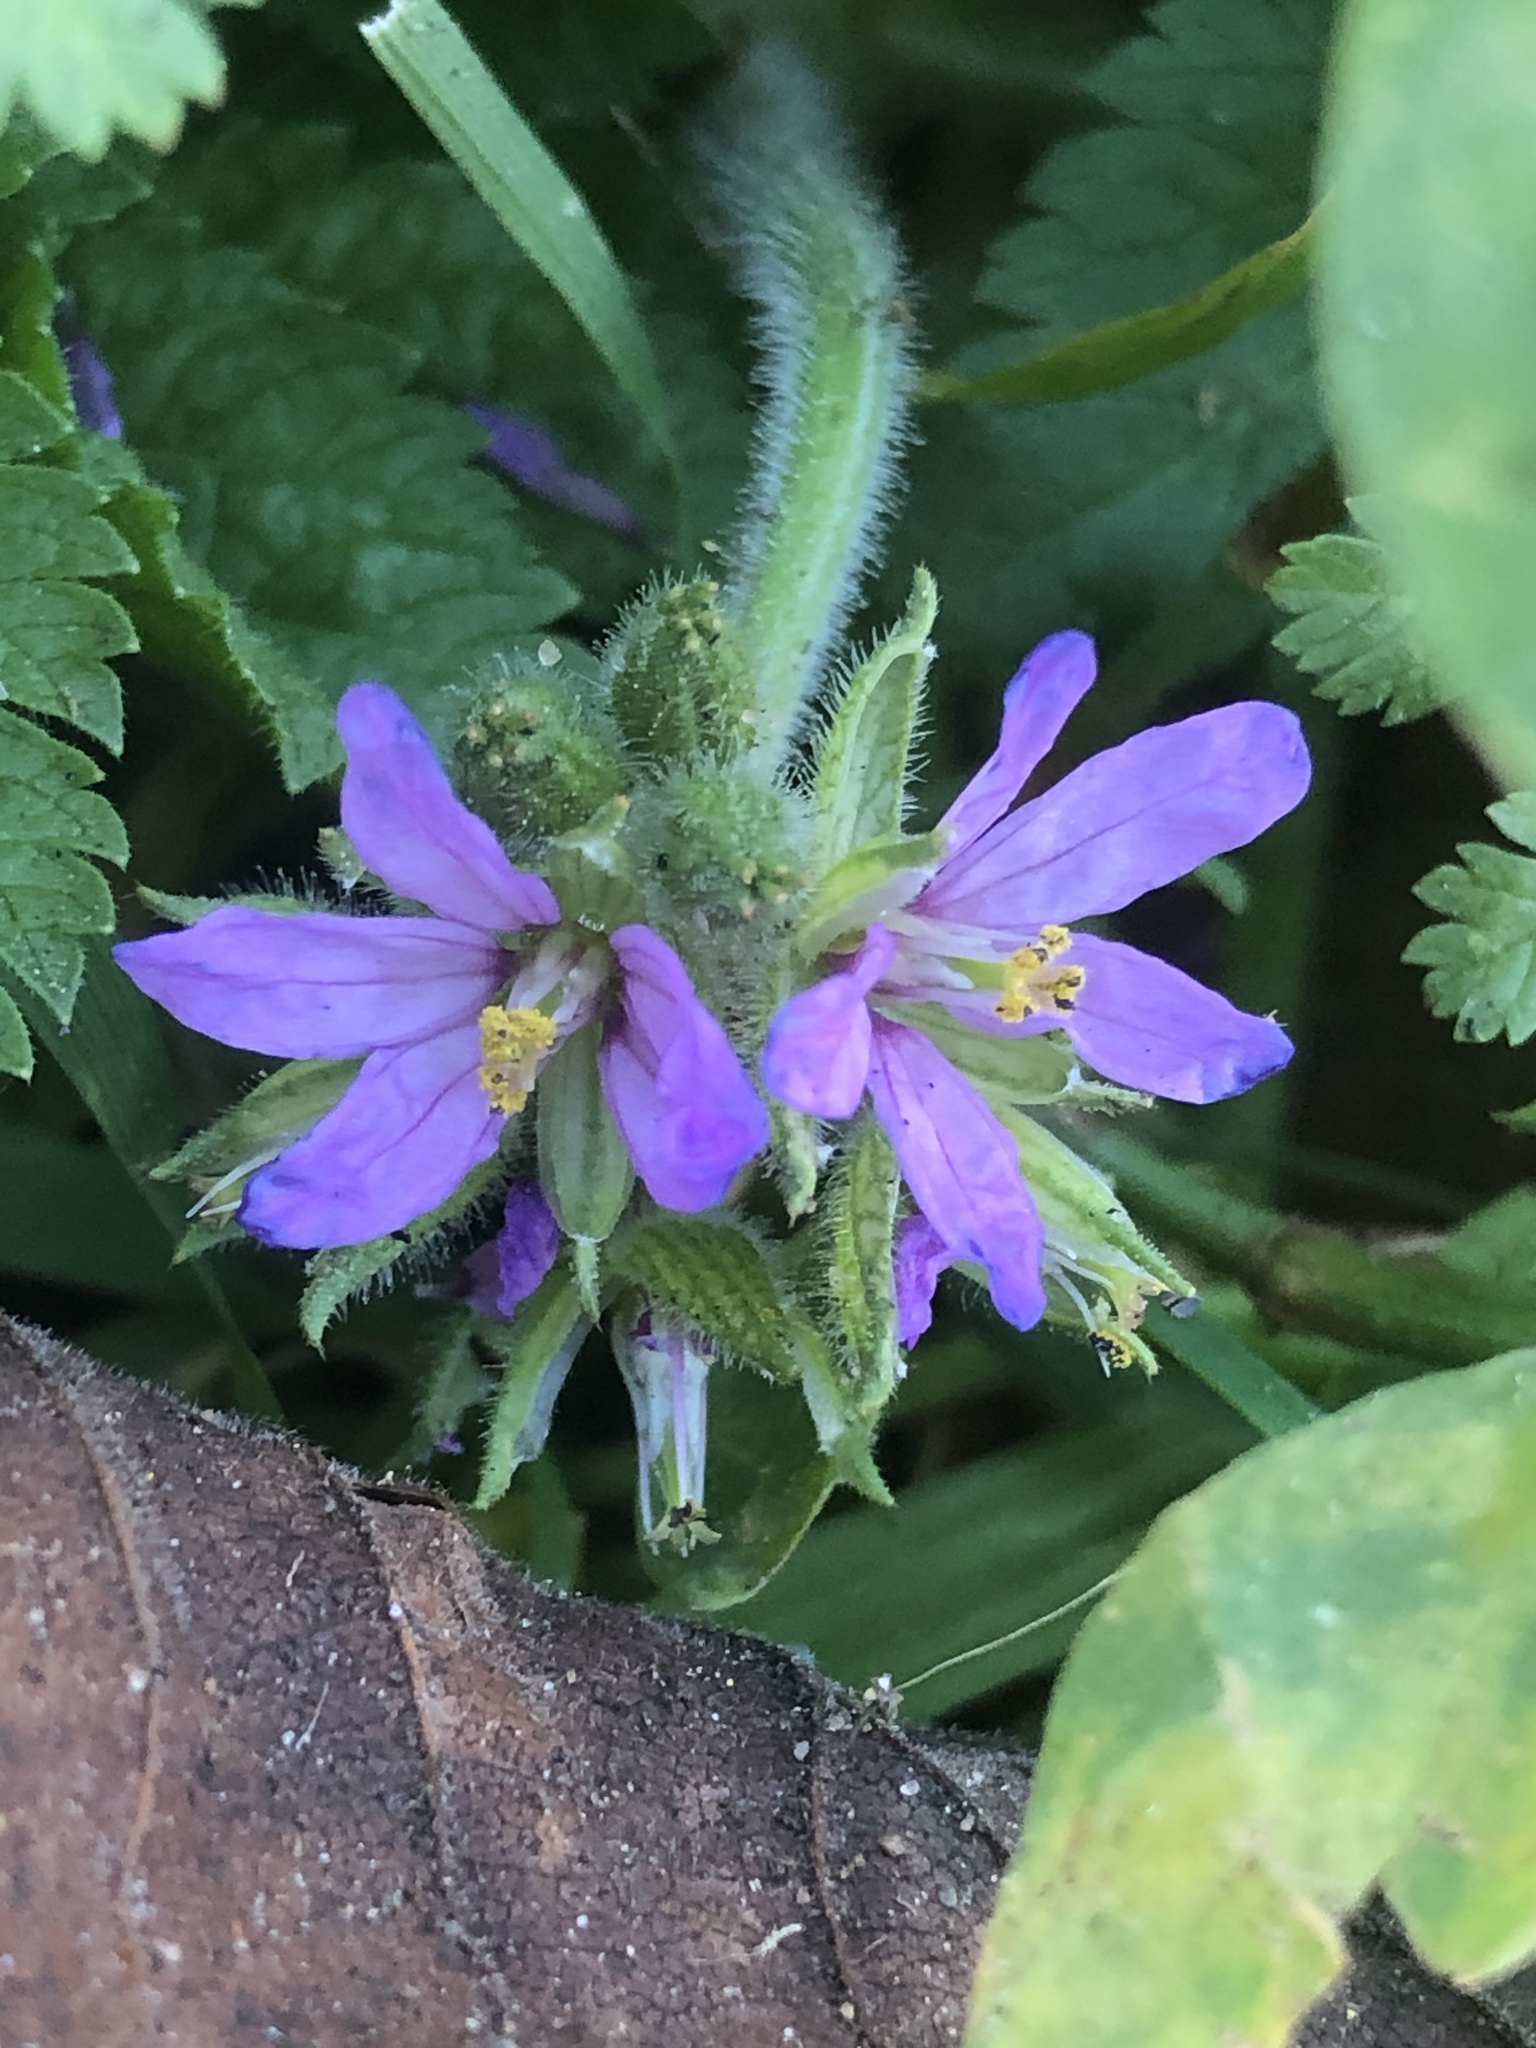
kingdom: Plantae
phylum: Tracheophyta
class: Magnoliopsida
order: Geraniales
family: Geraniaceae
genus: Erodium
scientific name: Erodium moschatum
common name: Musk stork's-bill
